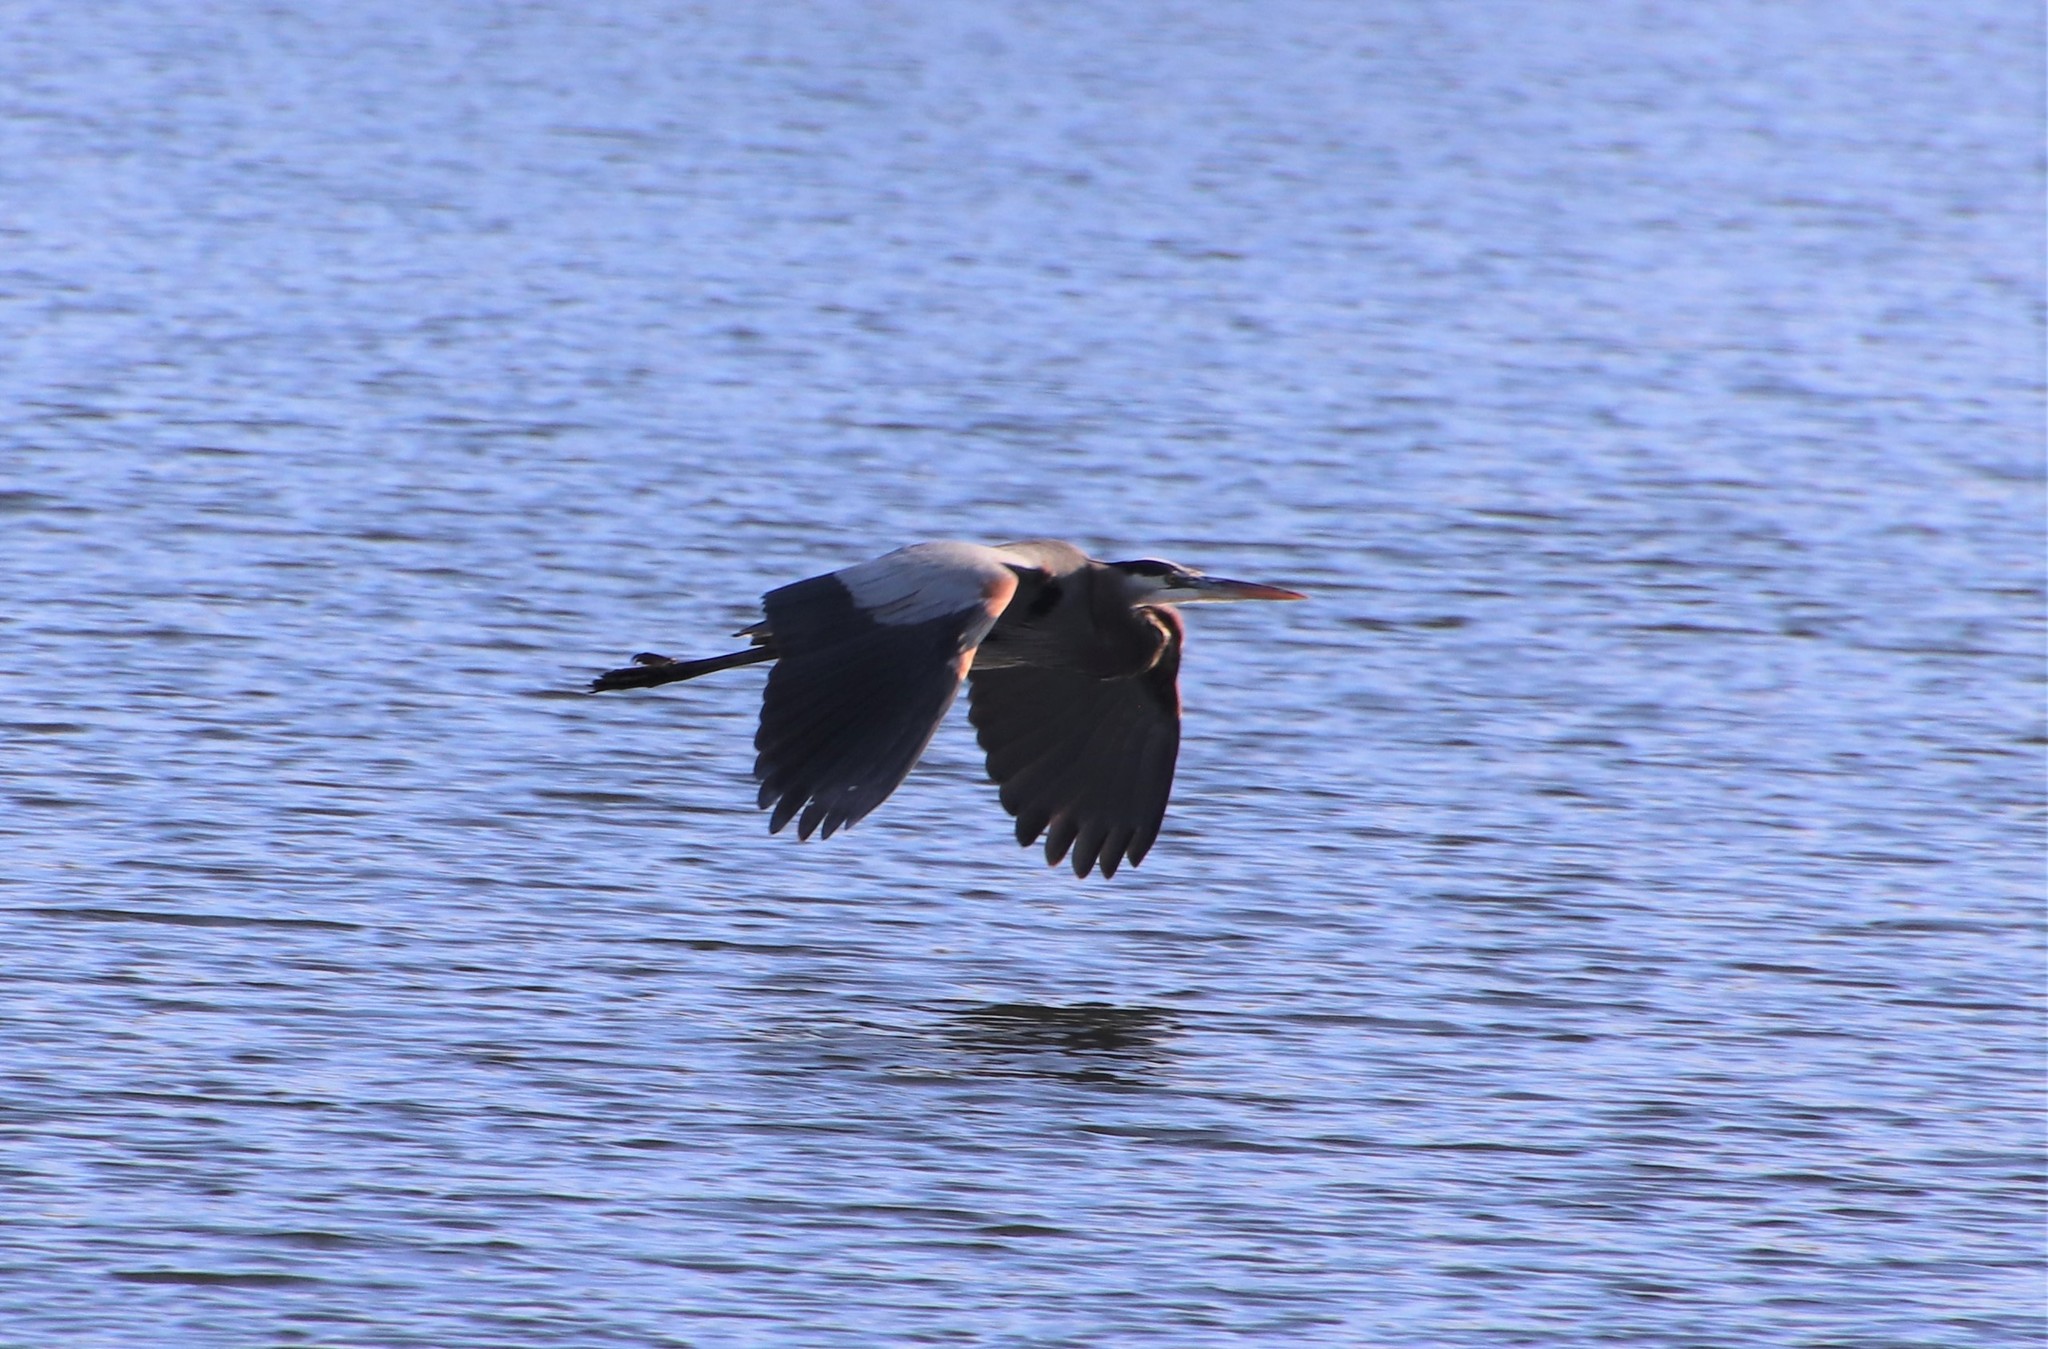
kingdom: Animalia
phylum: Chordata
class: Aves
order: Pelecaniformes
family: Ardeidae
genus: Ardea
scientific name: Ardea herodias
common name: Great blue heron
